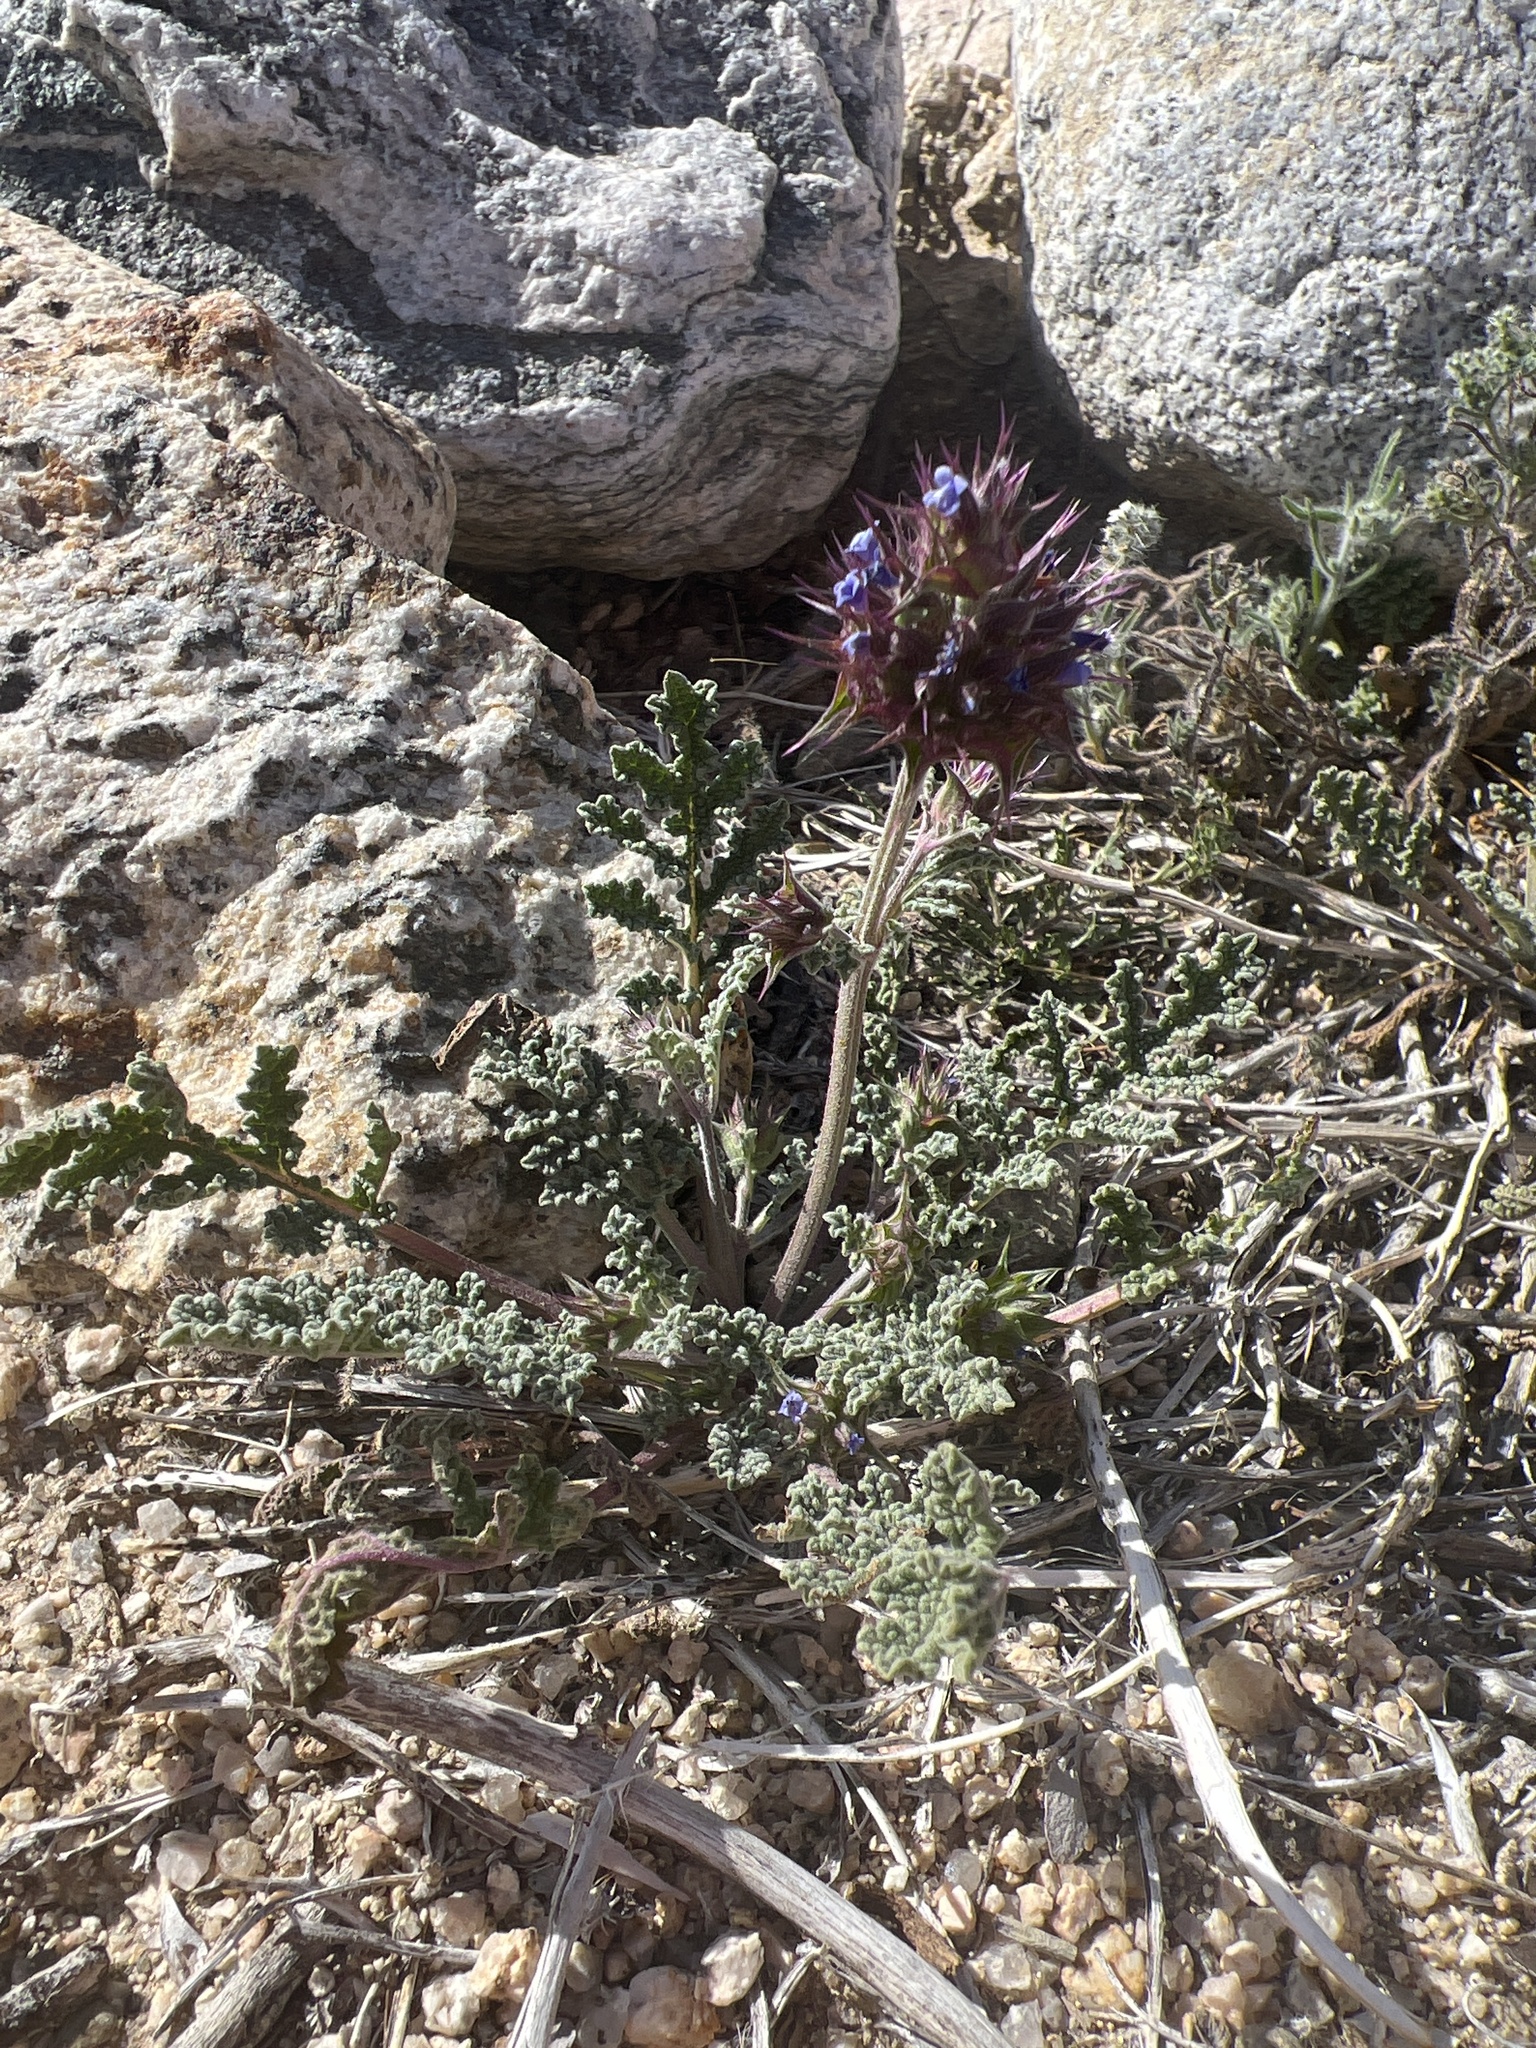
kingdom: Plantae
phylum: Tracheophyta
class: Magnoliopsida
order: Lamiales
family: Lamiaceae
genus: Salvia
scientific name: Salvia columbariae
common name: Chia
